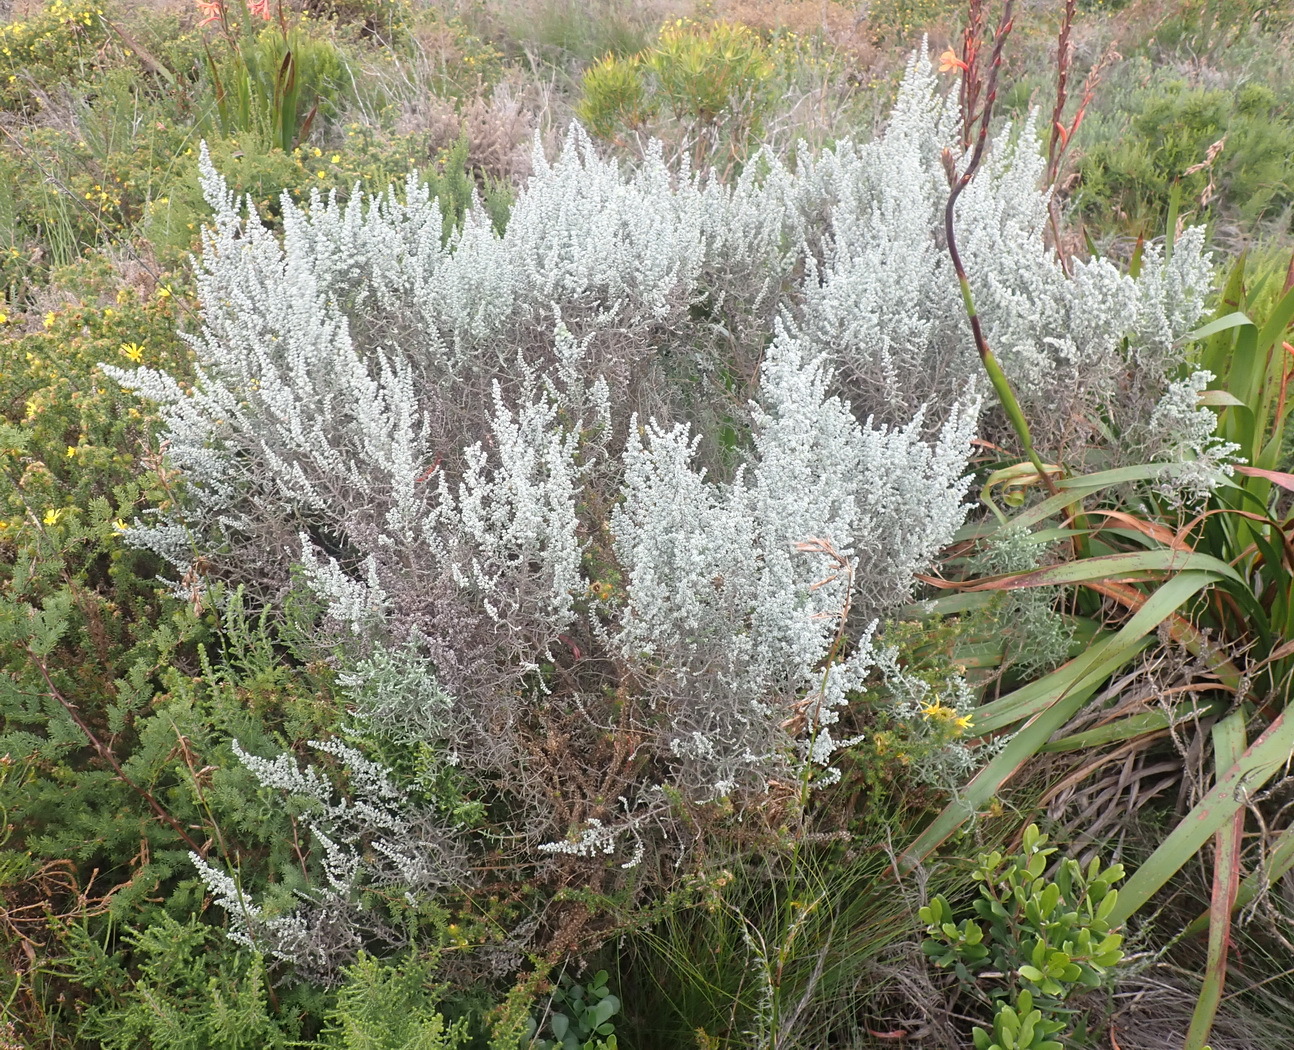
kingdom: Plantae
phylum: Tracheophyta
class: Magnoliopsida
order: Asterales
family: Asteraceae
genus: Seriphium
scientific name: Seriphium cinereum
